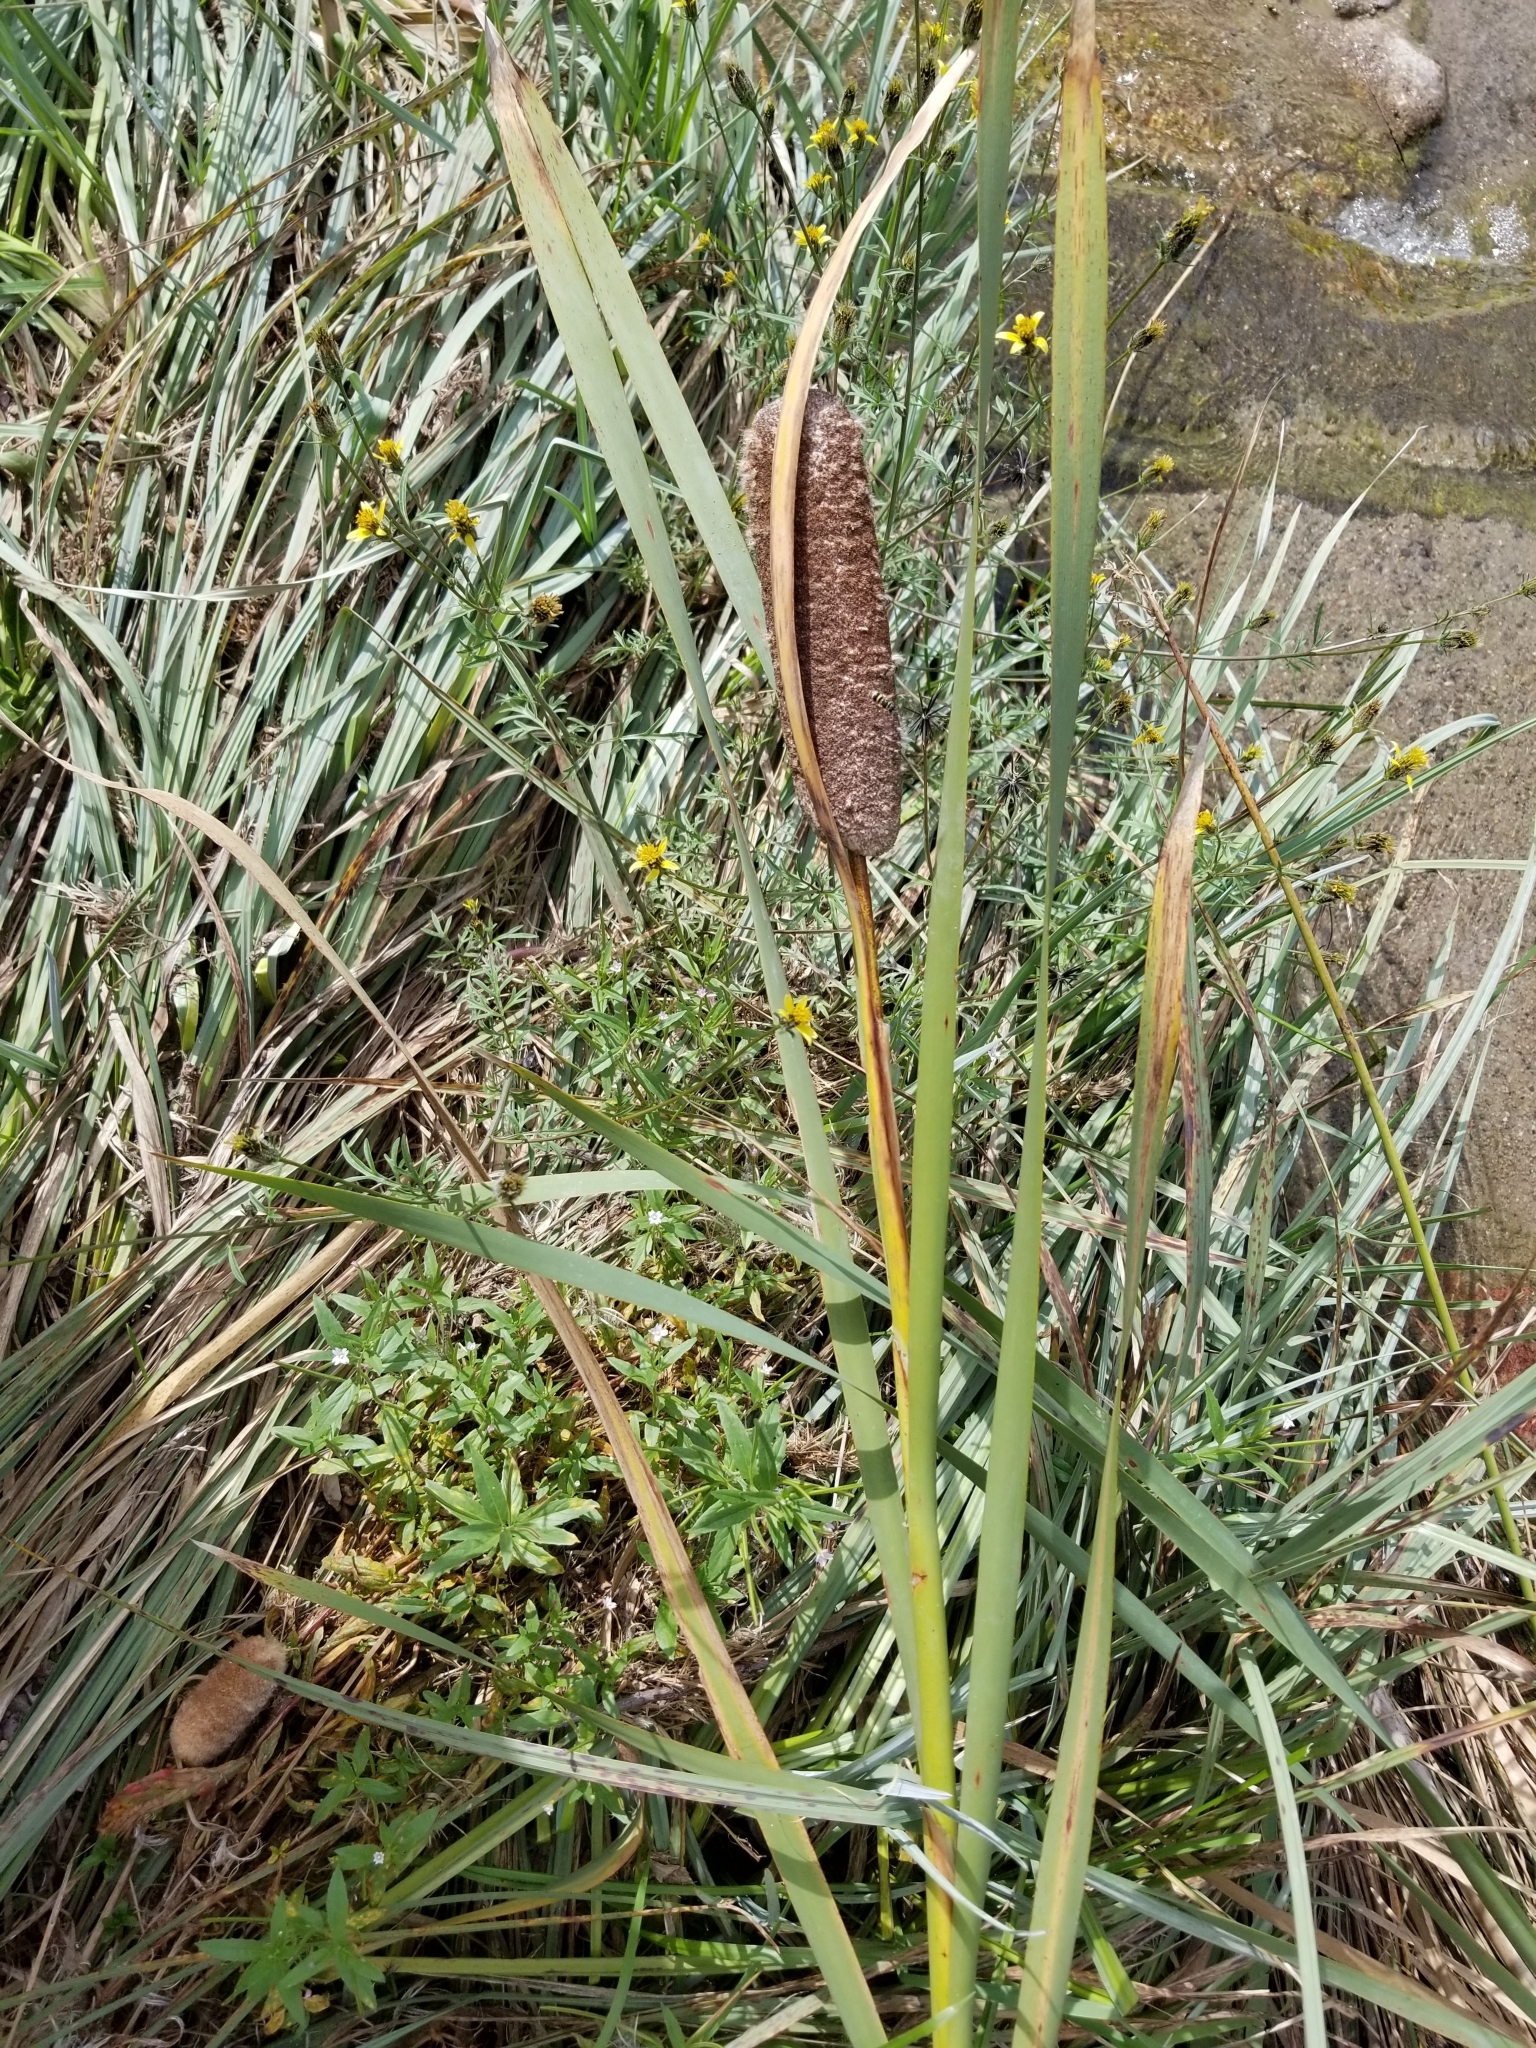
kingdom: Plantae
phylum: Tracheophyta
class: Liliopsida
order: Poales
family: Typhaceae
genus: Typha
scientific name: Typha latifolia
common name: Broadleaf cattail
